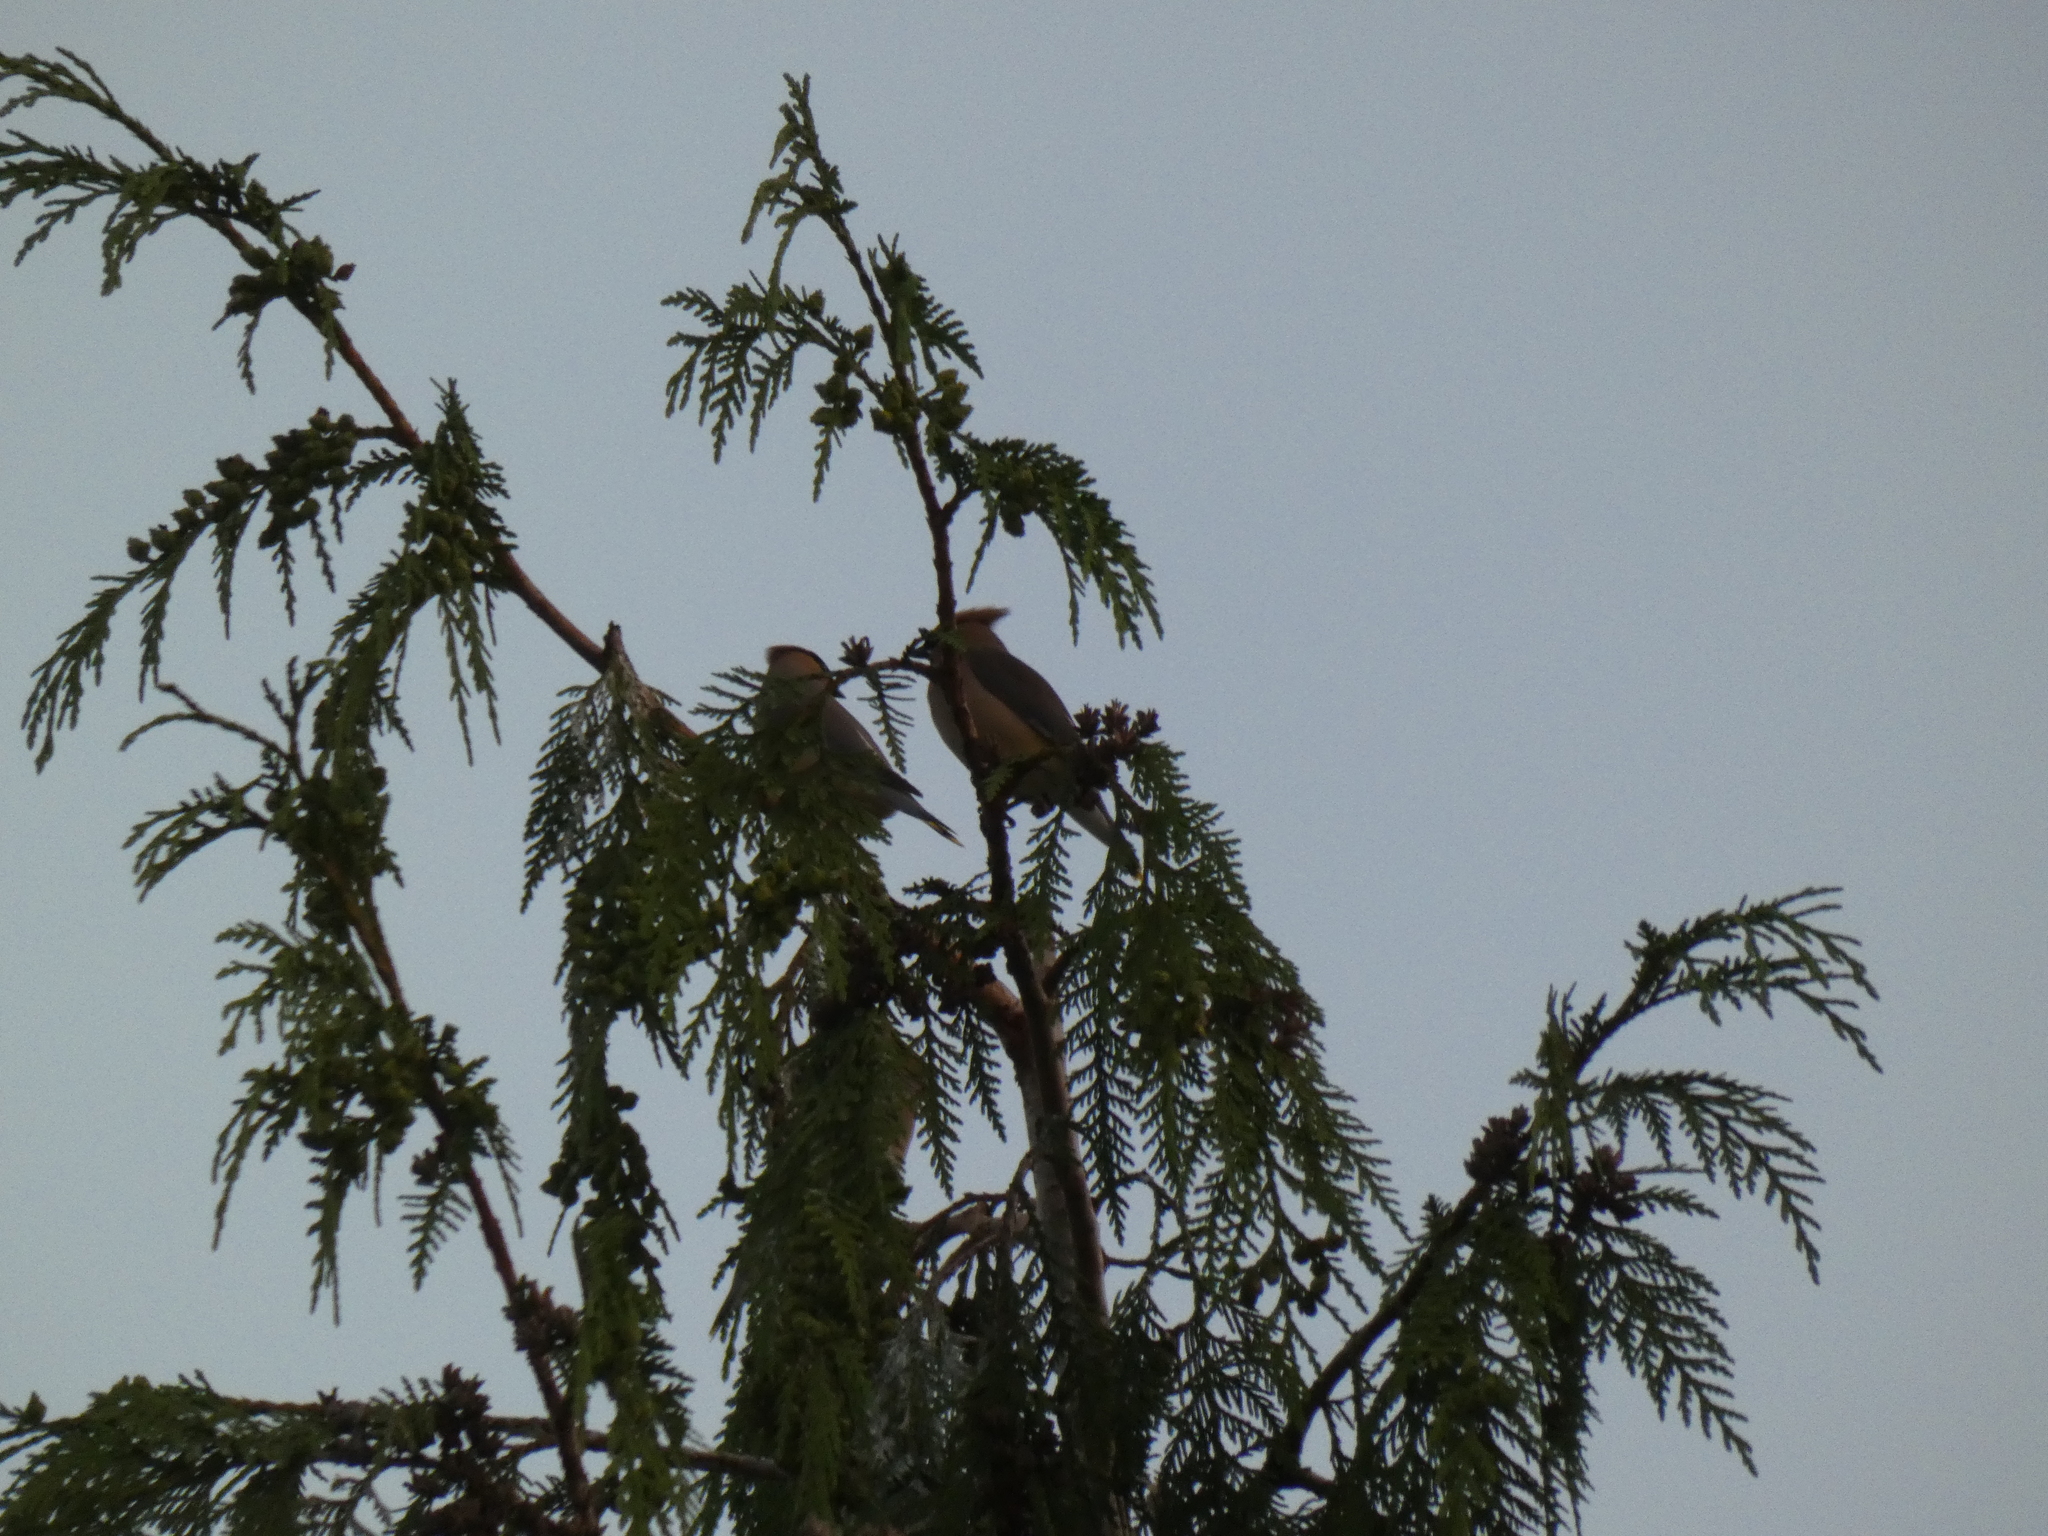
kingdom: Animalia
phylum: Chordata
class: Aves
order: Passeriformes
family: Bombycillidae
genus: Bombycilla
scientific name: Bombycilla cedrorum
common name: Cedar waxwing
